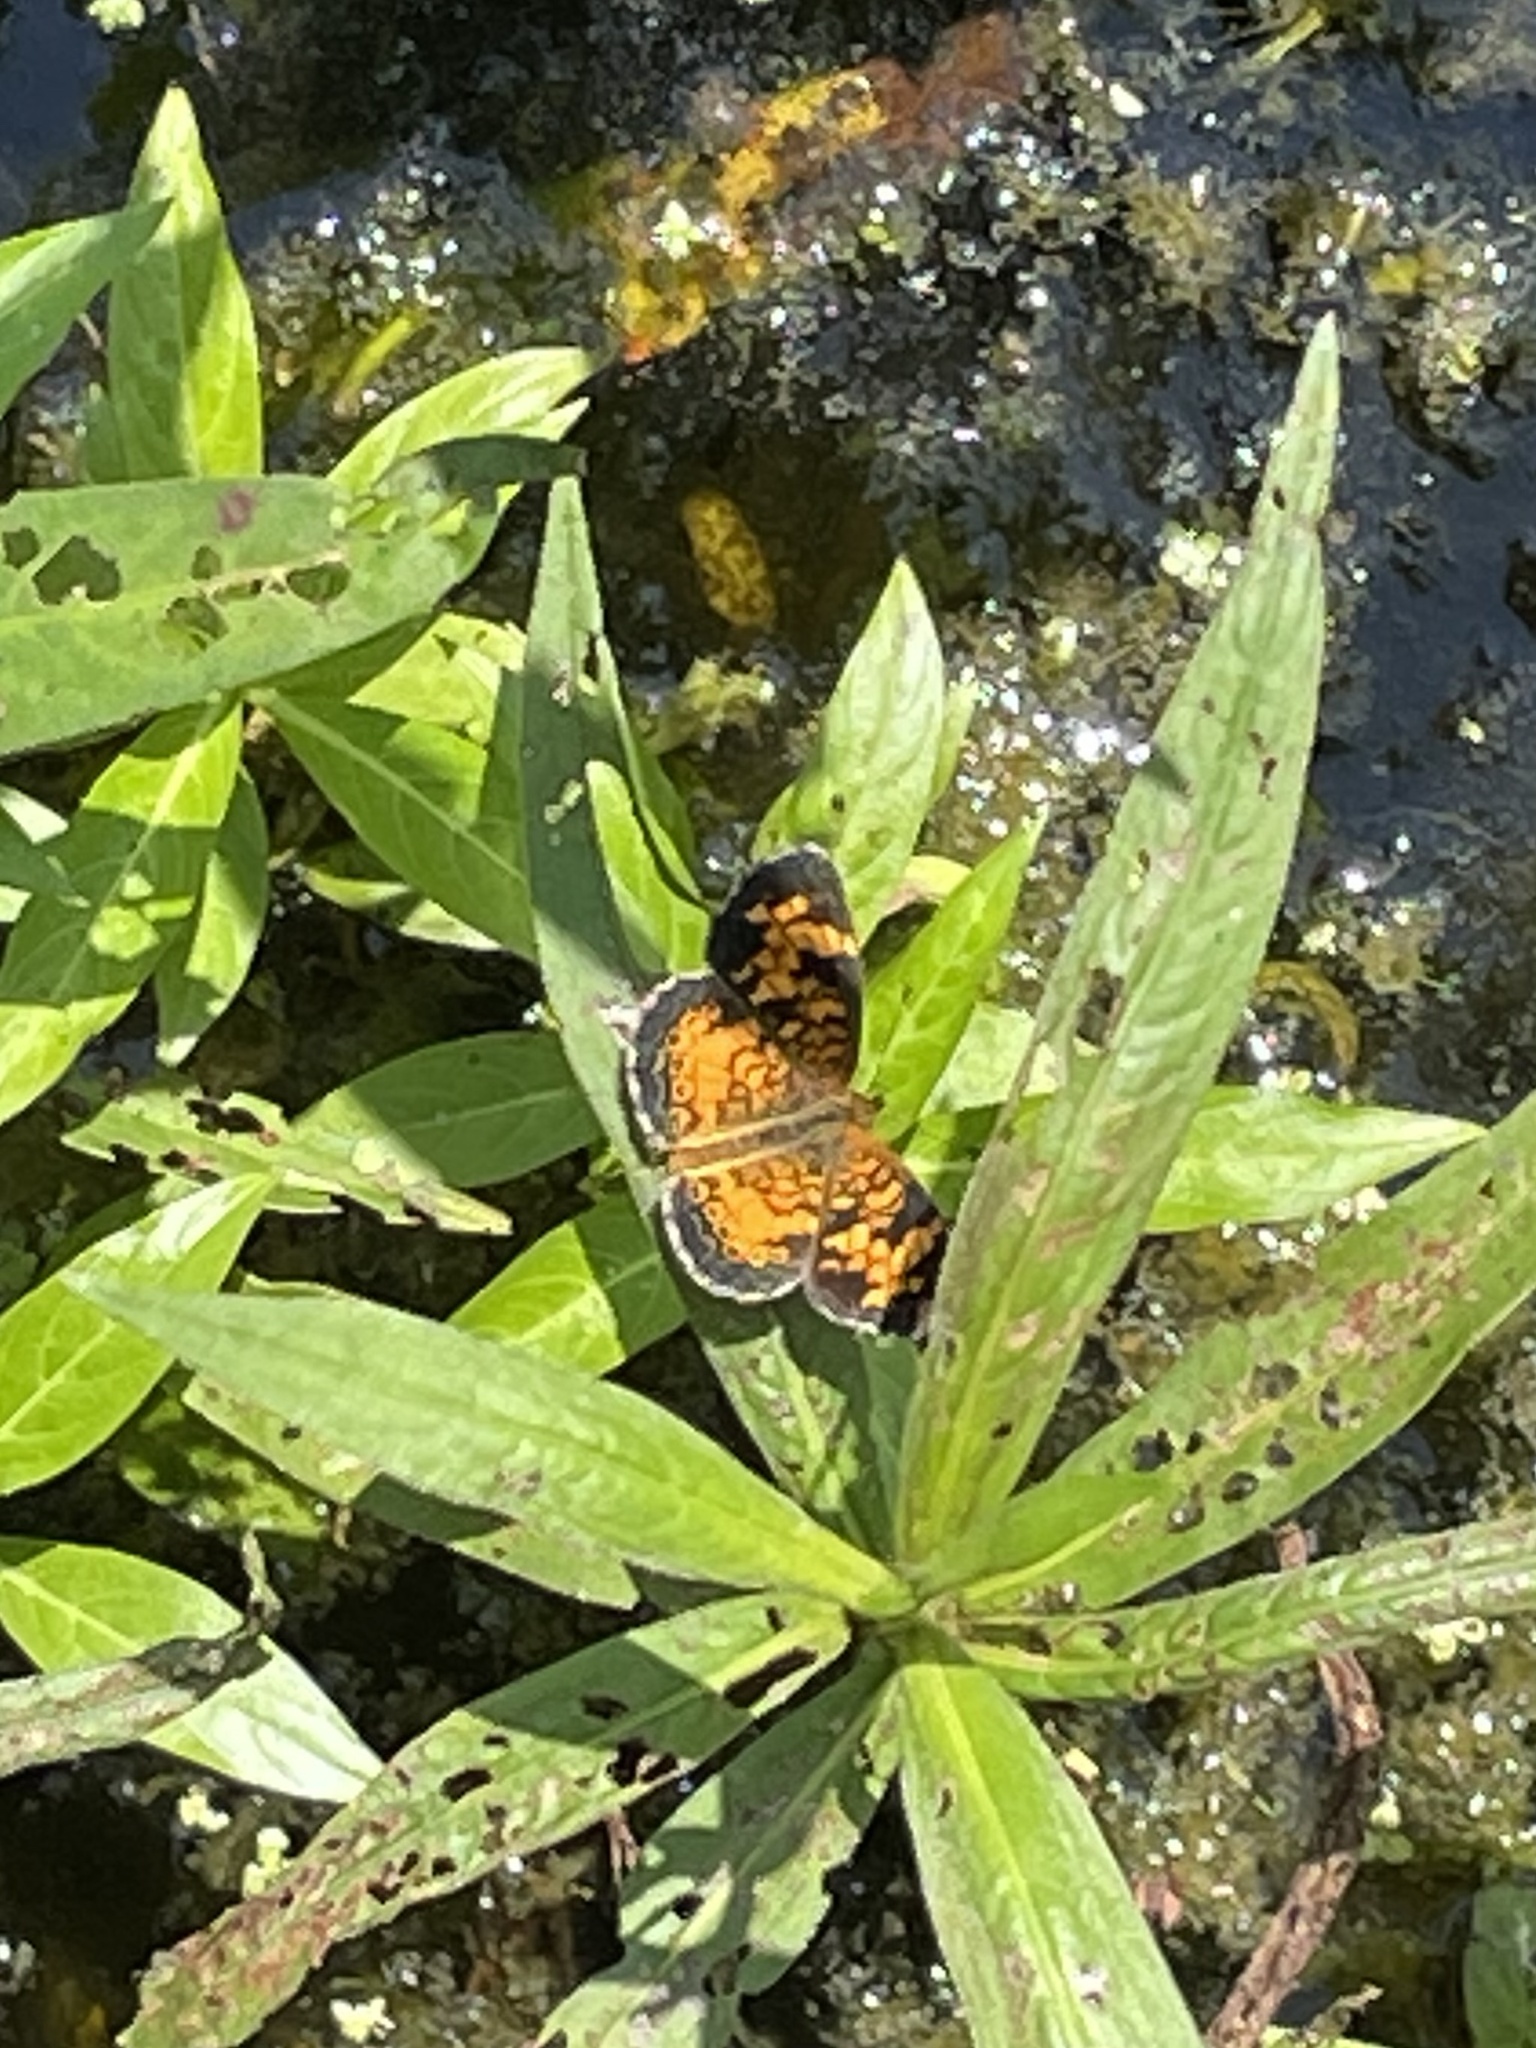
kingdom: Animalia
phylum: Arthropoda
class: Insecta
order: Lepidoptera
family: Nymphalidae
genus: Phyciodes
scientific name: Phyciodes tharos
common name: Pearl crescent
